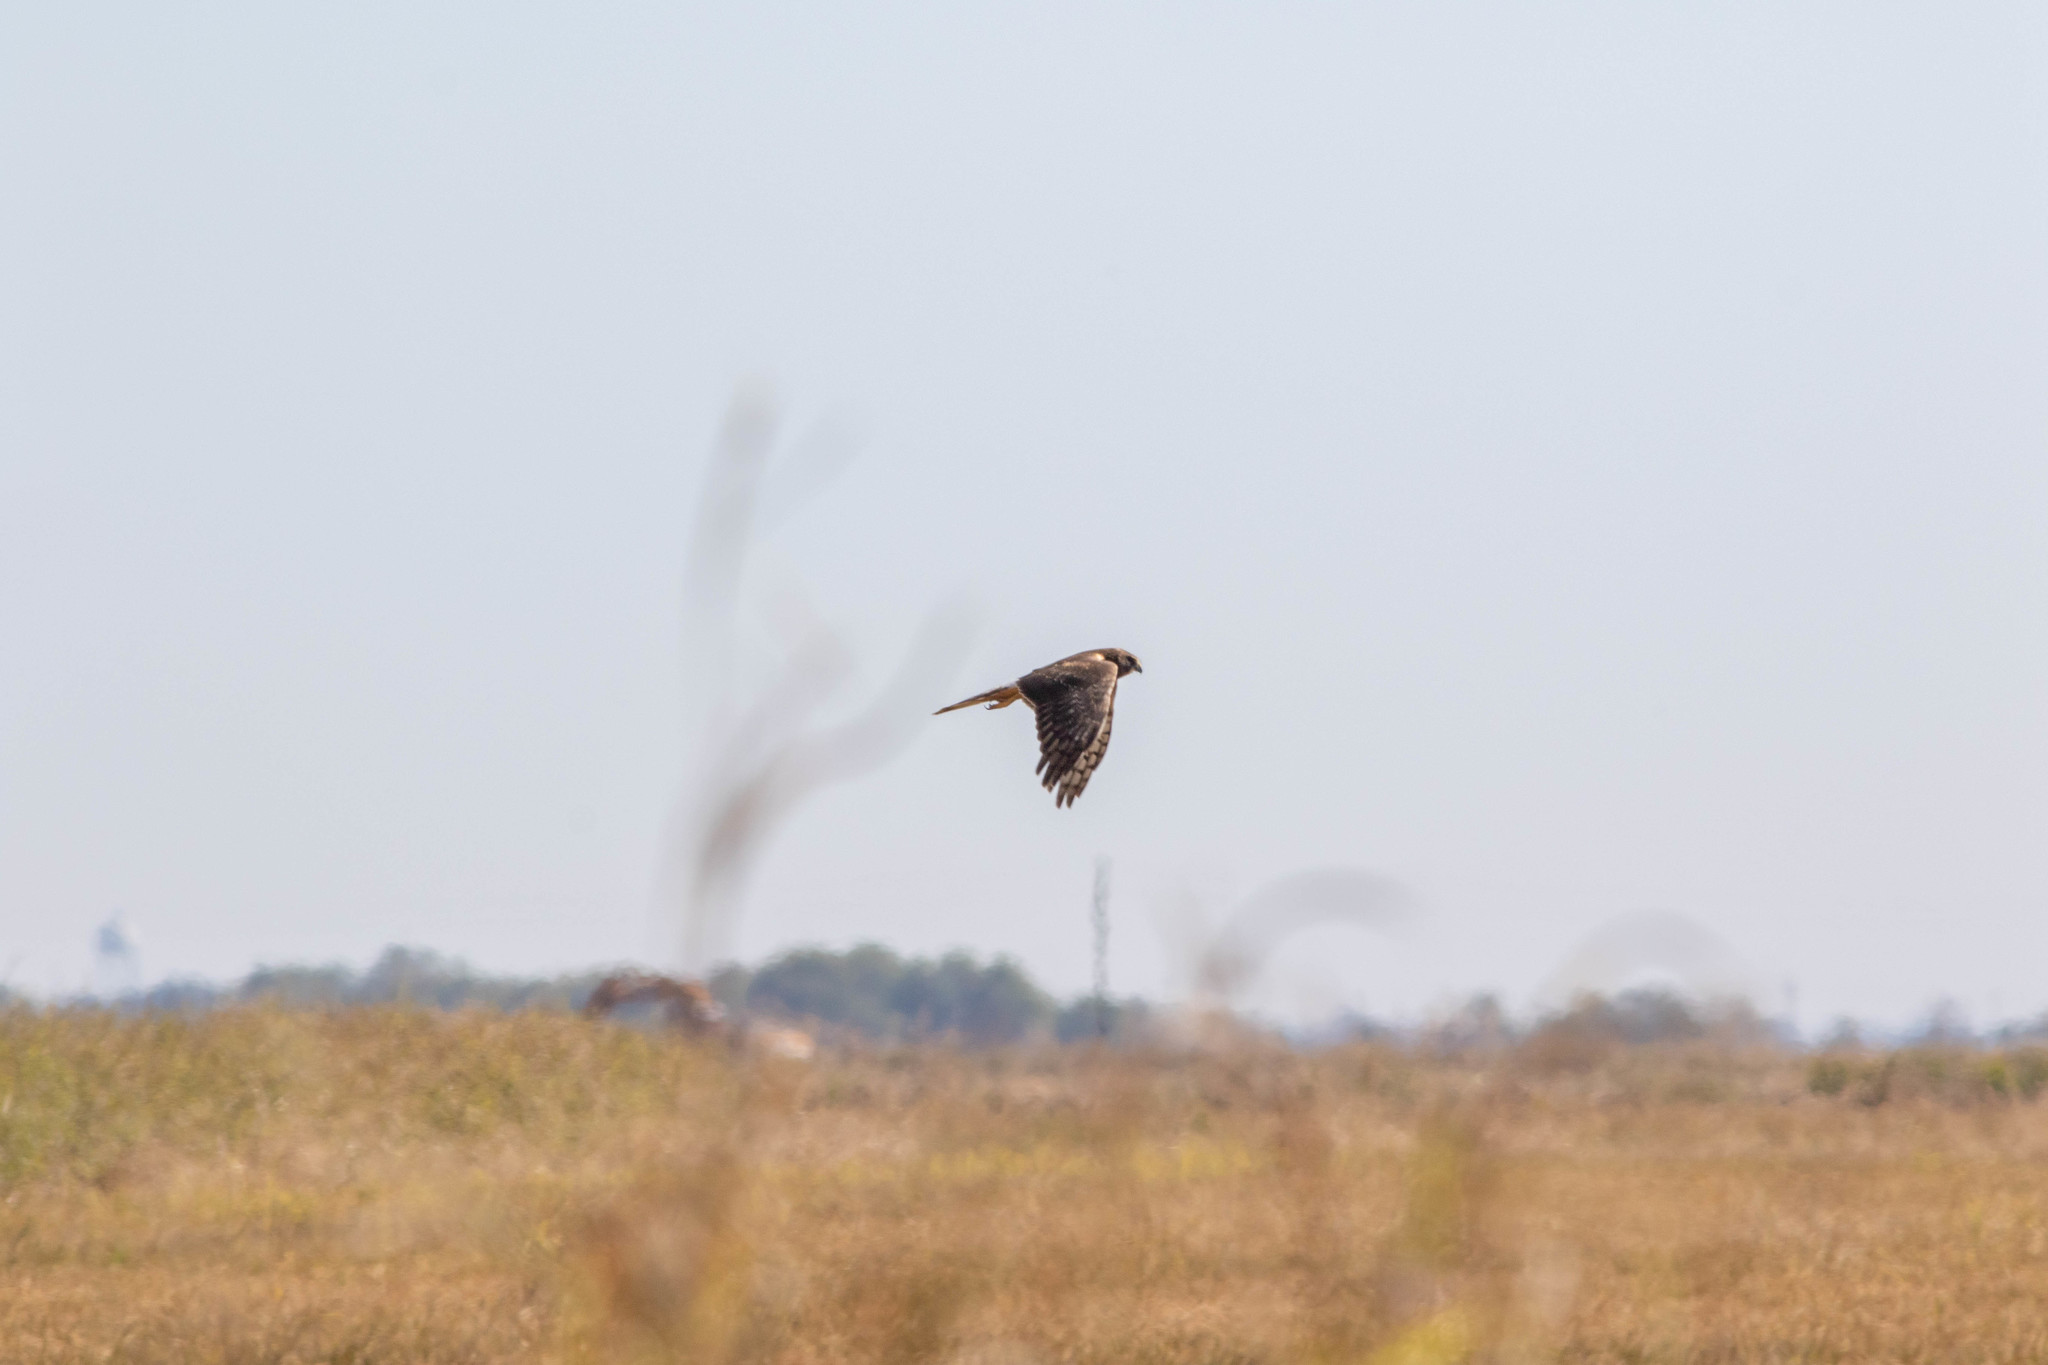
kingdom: Animalia
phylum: Chordata
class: Aves
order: Accipitriformes
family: Accipitridae
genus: Circus
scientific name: Circus cyaneus
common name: Hen harrier
